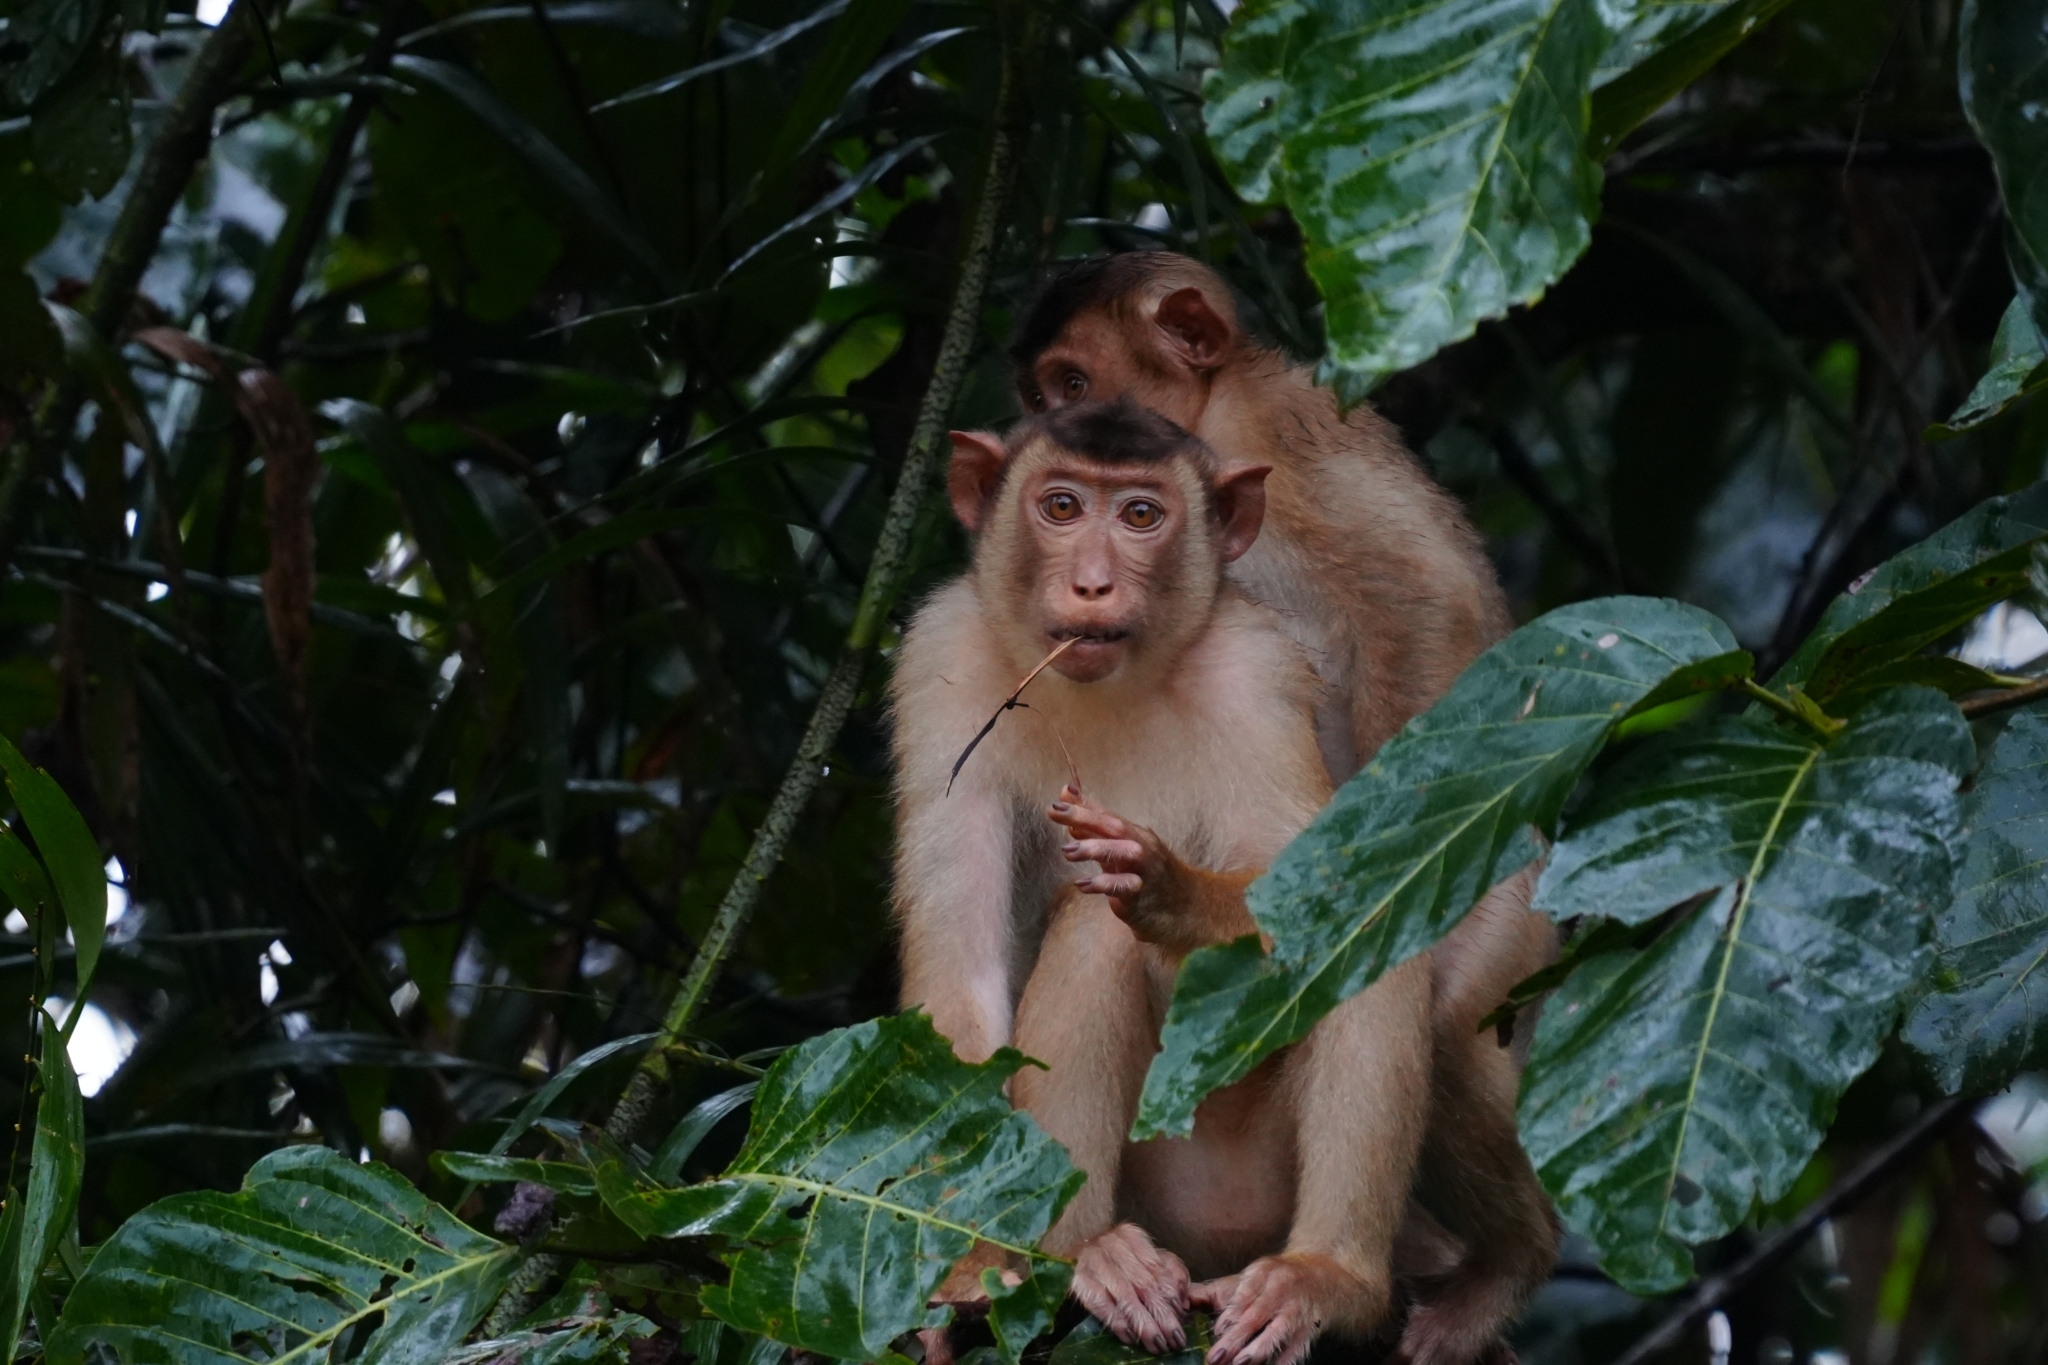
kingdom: Animalia
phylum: Chordata
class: Mammalia
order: Primates
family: Cercopithecidae
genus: Macaca
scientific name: Macaca nemestrina
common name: Southern pig-tailed macaque
